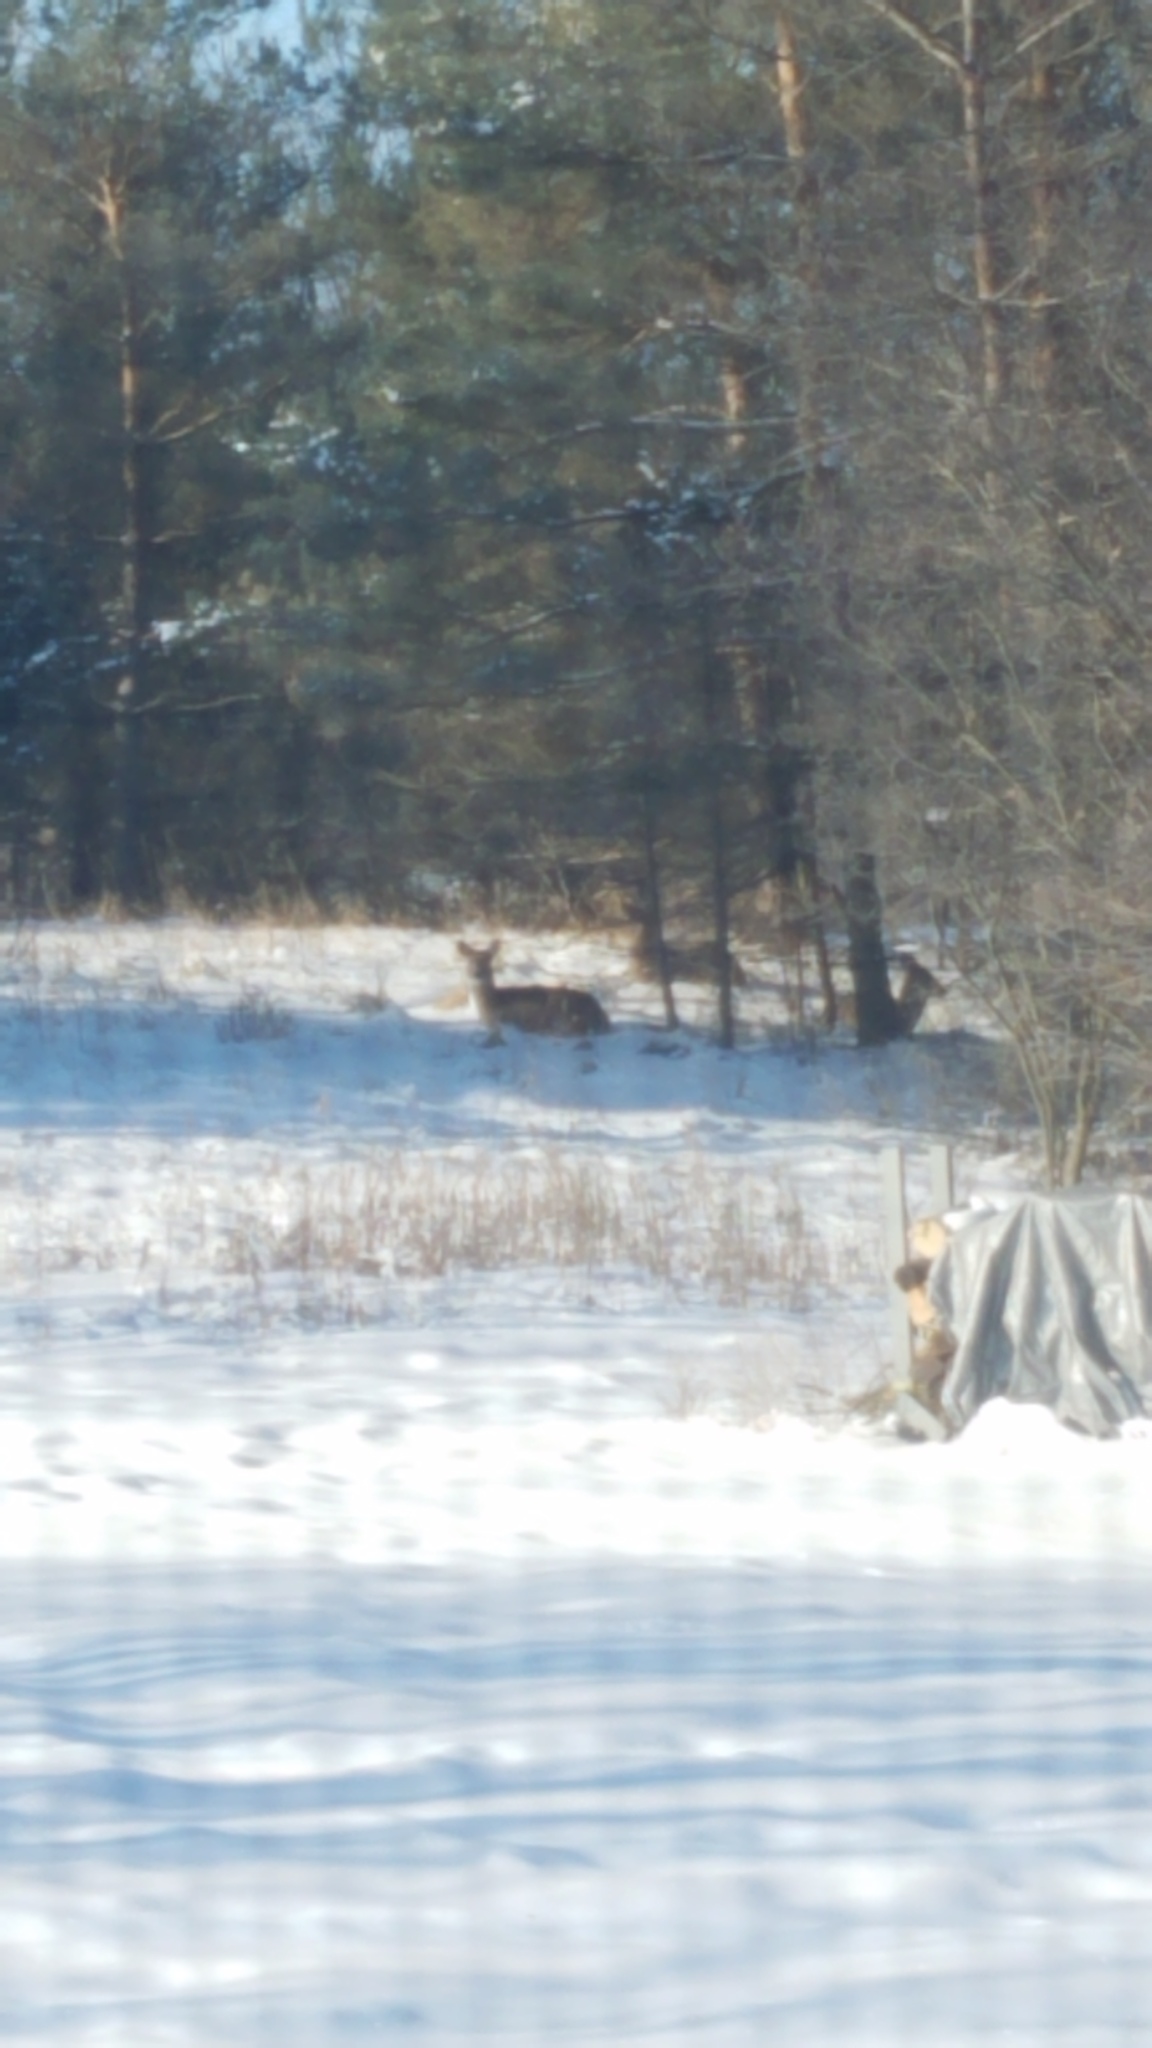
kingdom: Animalia
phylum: Chordata
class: Mammalia
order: Artiodactyla
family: Cervidae
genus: Odocoileus
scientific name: Odocoileus virginianus
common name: White-tailed deer
